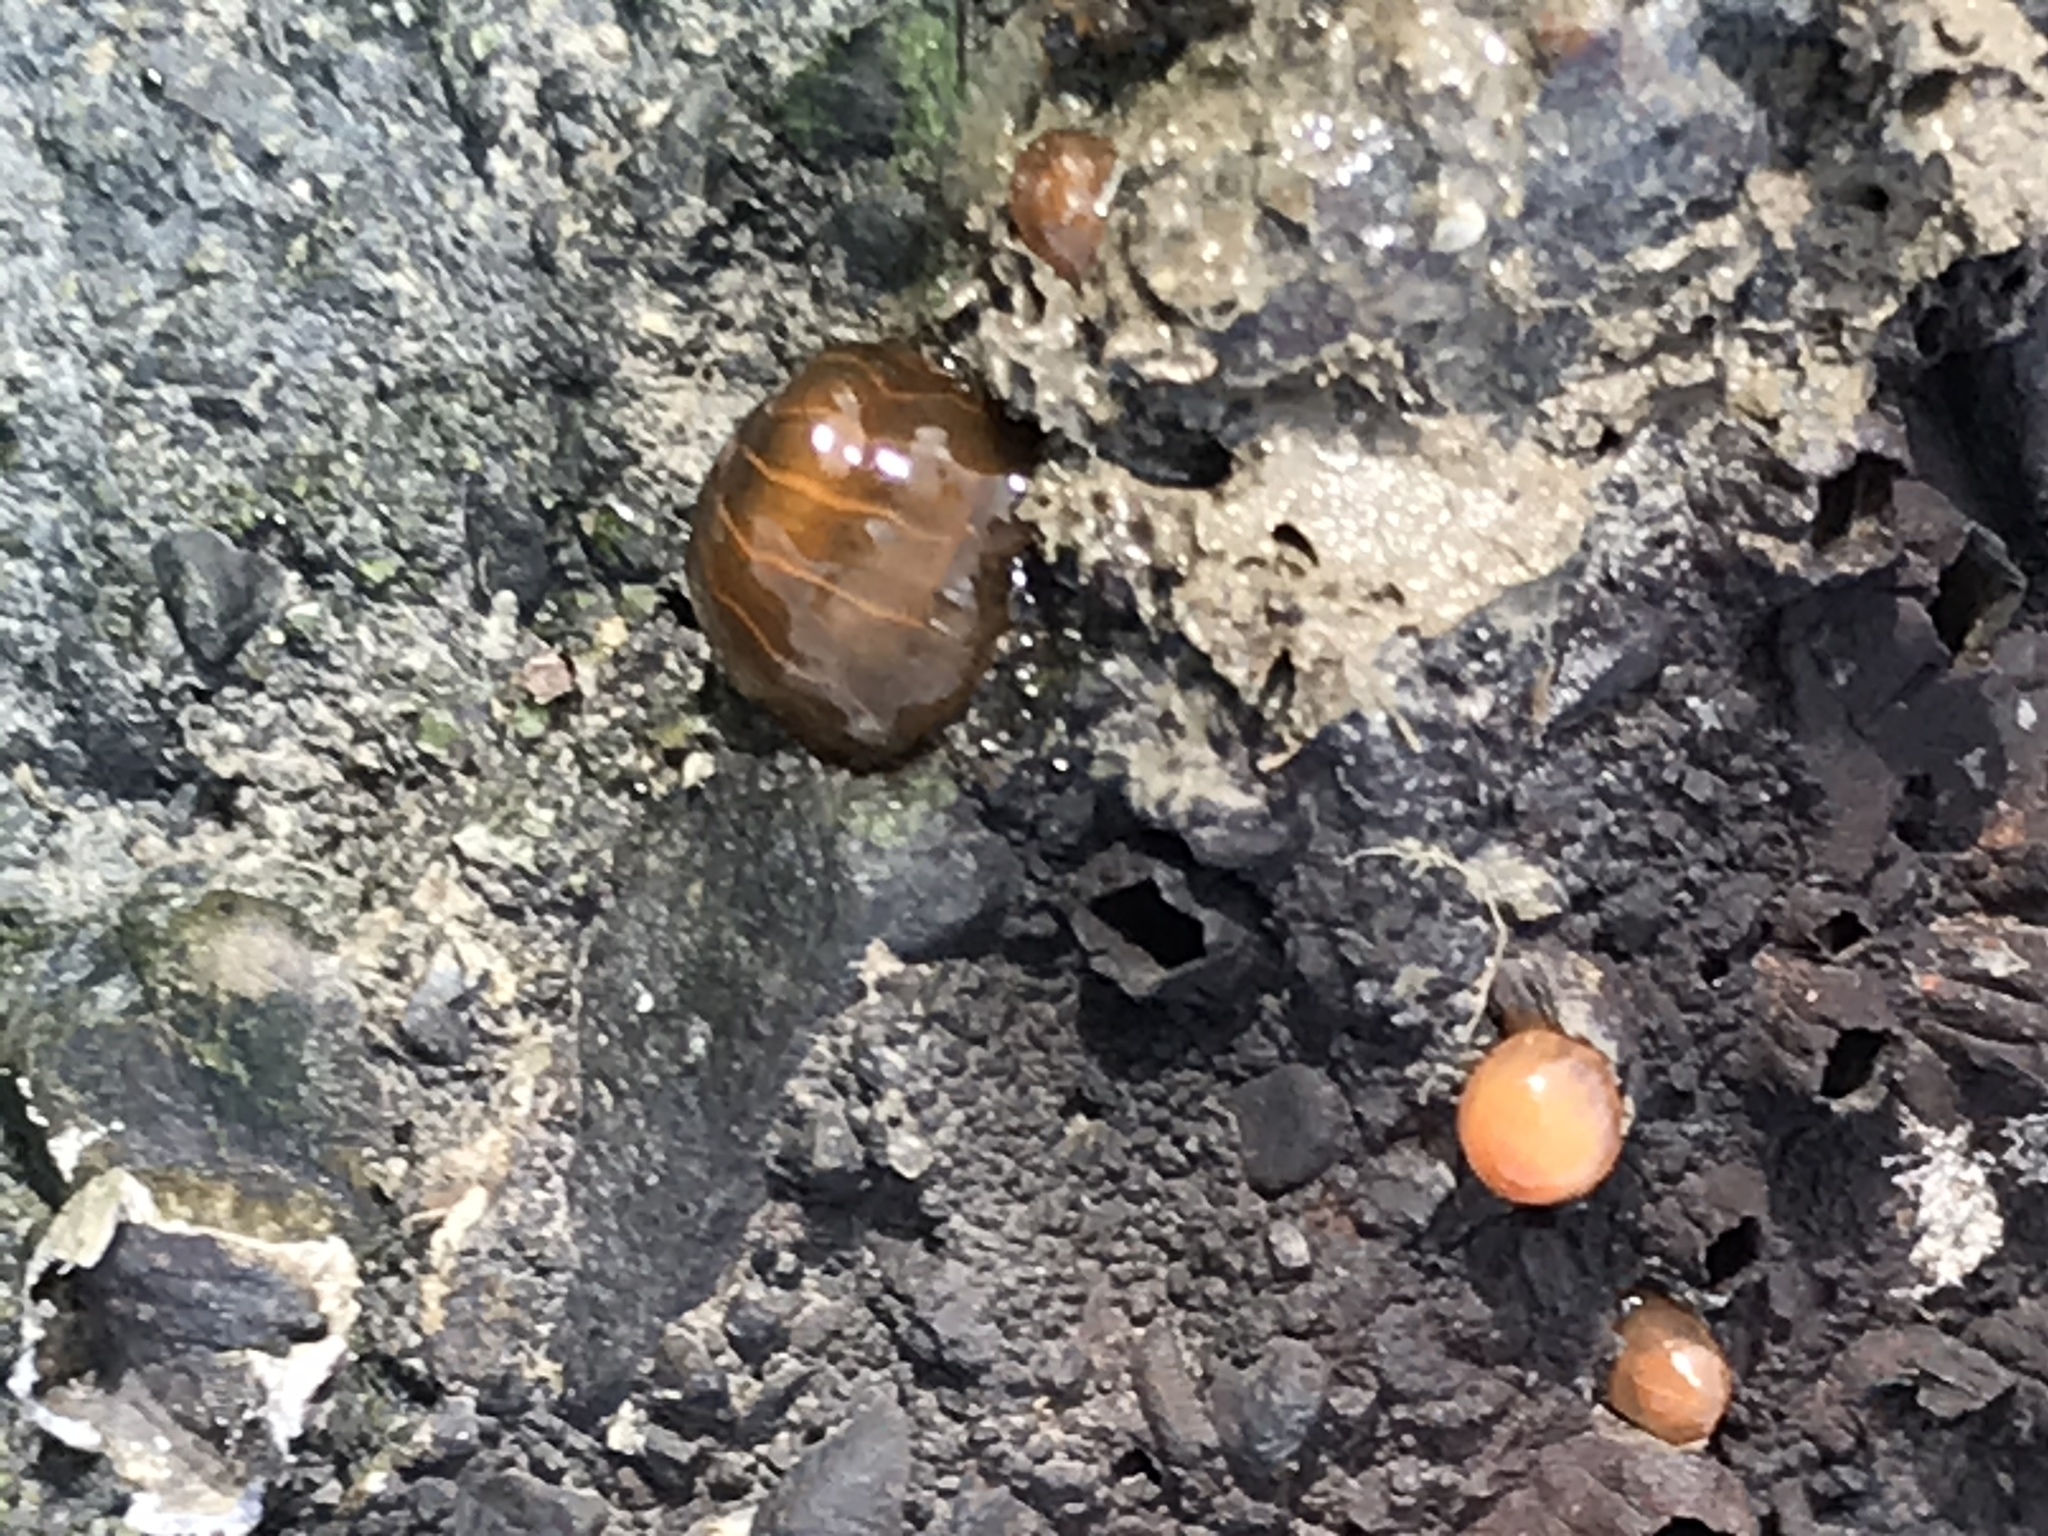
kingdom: Animalia
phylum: Cnidaria
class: Anthozoa
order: Actiniaria
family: Diadumenidae
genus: Diadumene
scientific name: Diadumene lineata
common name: Orange-striped anemone
